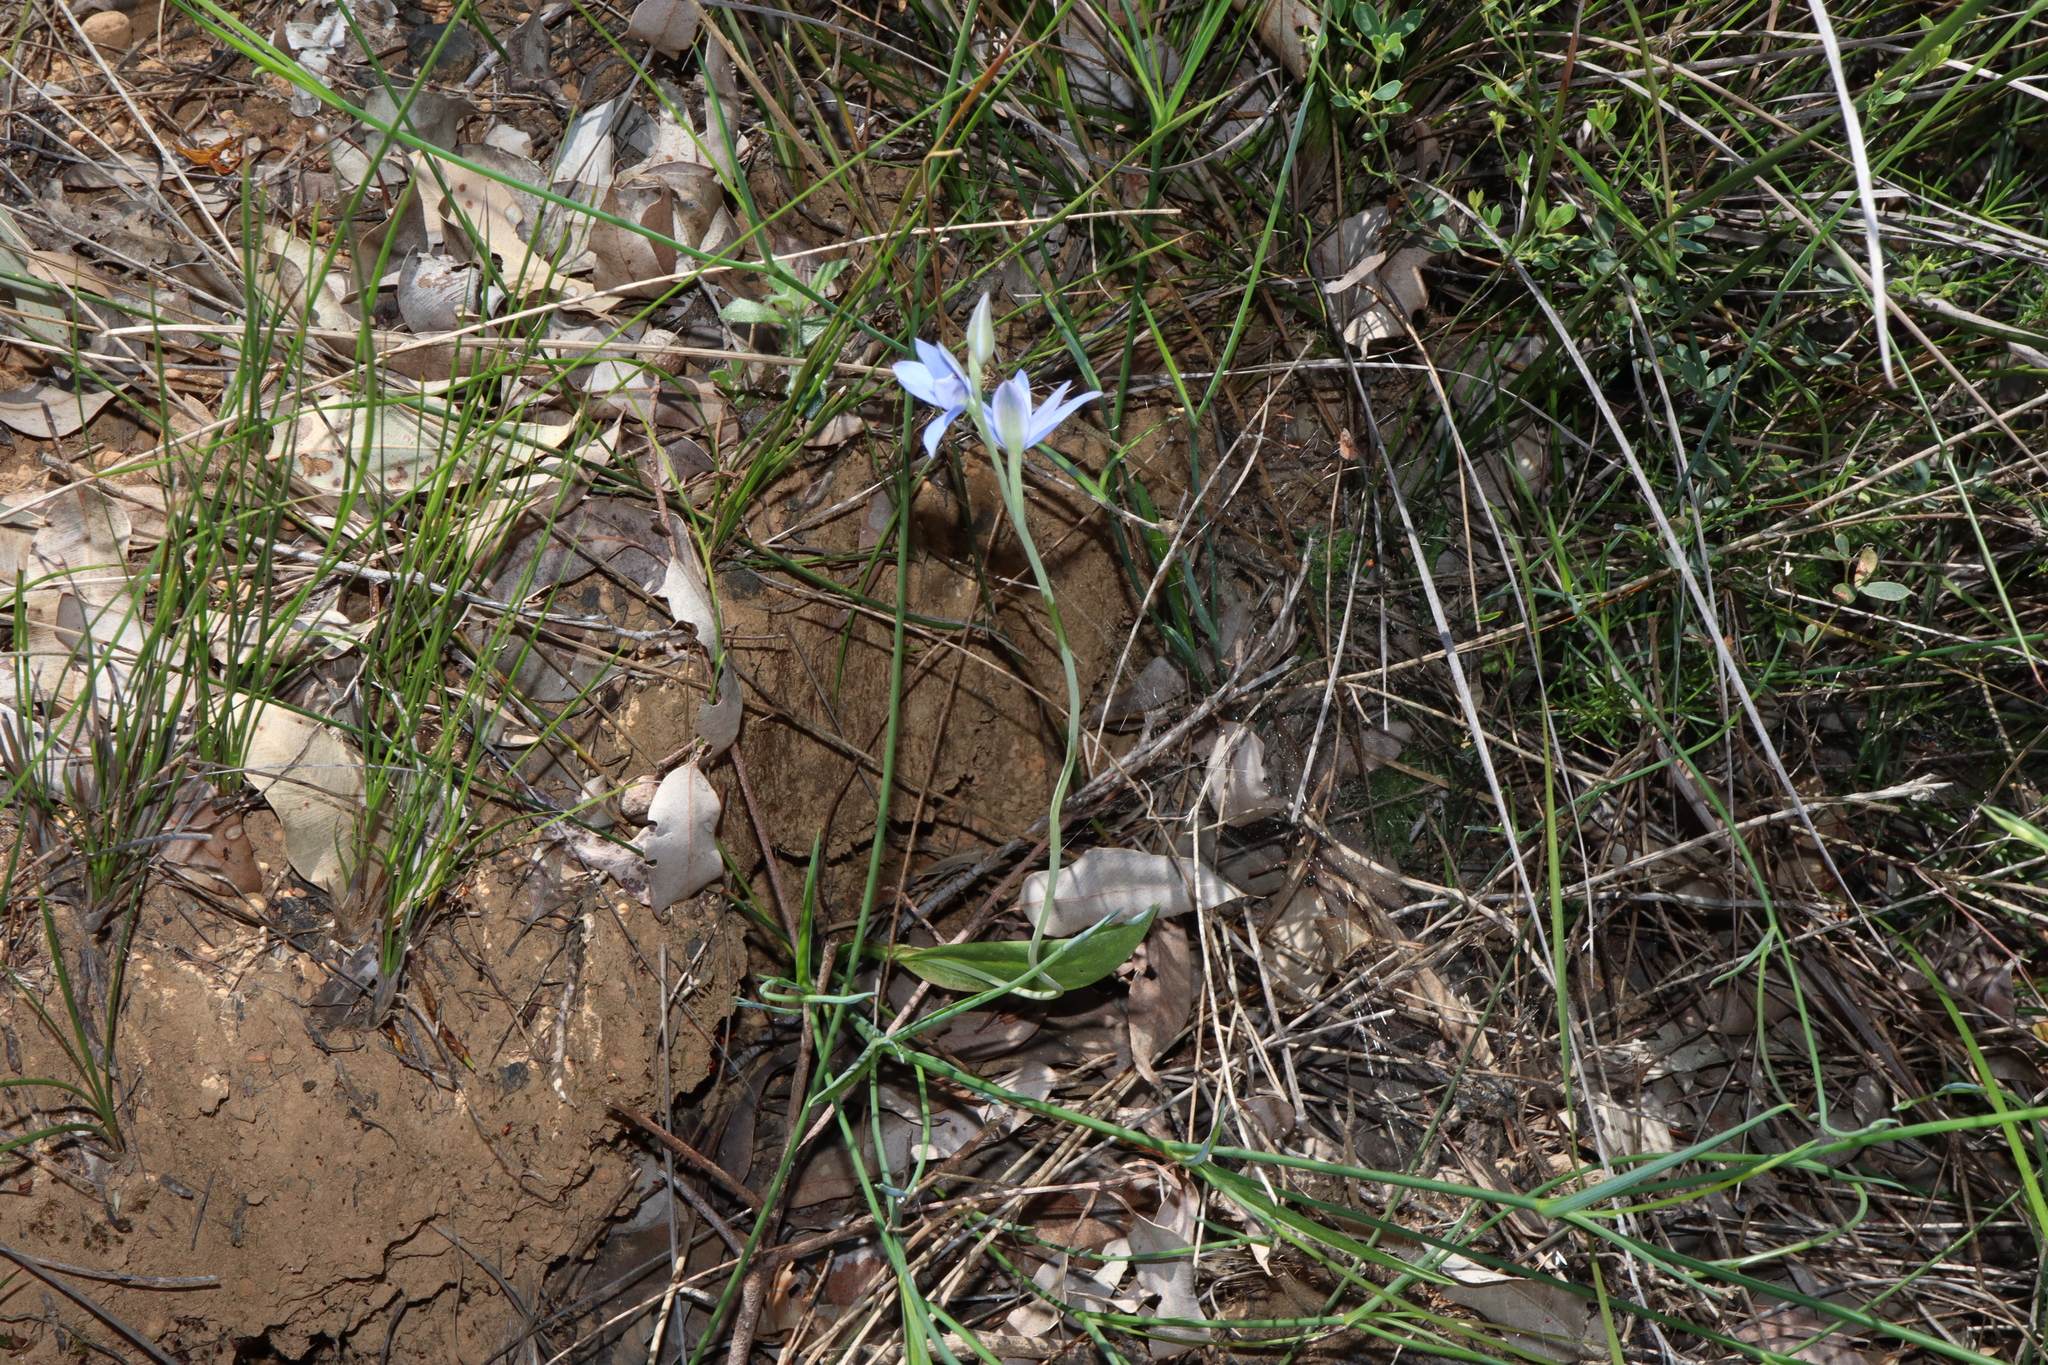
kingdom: Plantae
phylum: Tracheophyta
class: Liliopsida
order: Asparagales
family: Orchidaceae
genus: Thelymitra
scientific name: Thelymitra crinita
